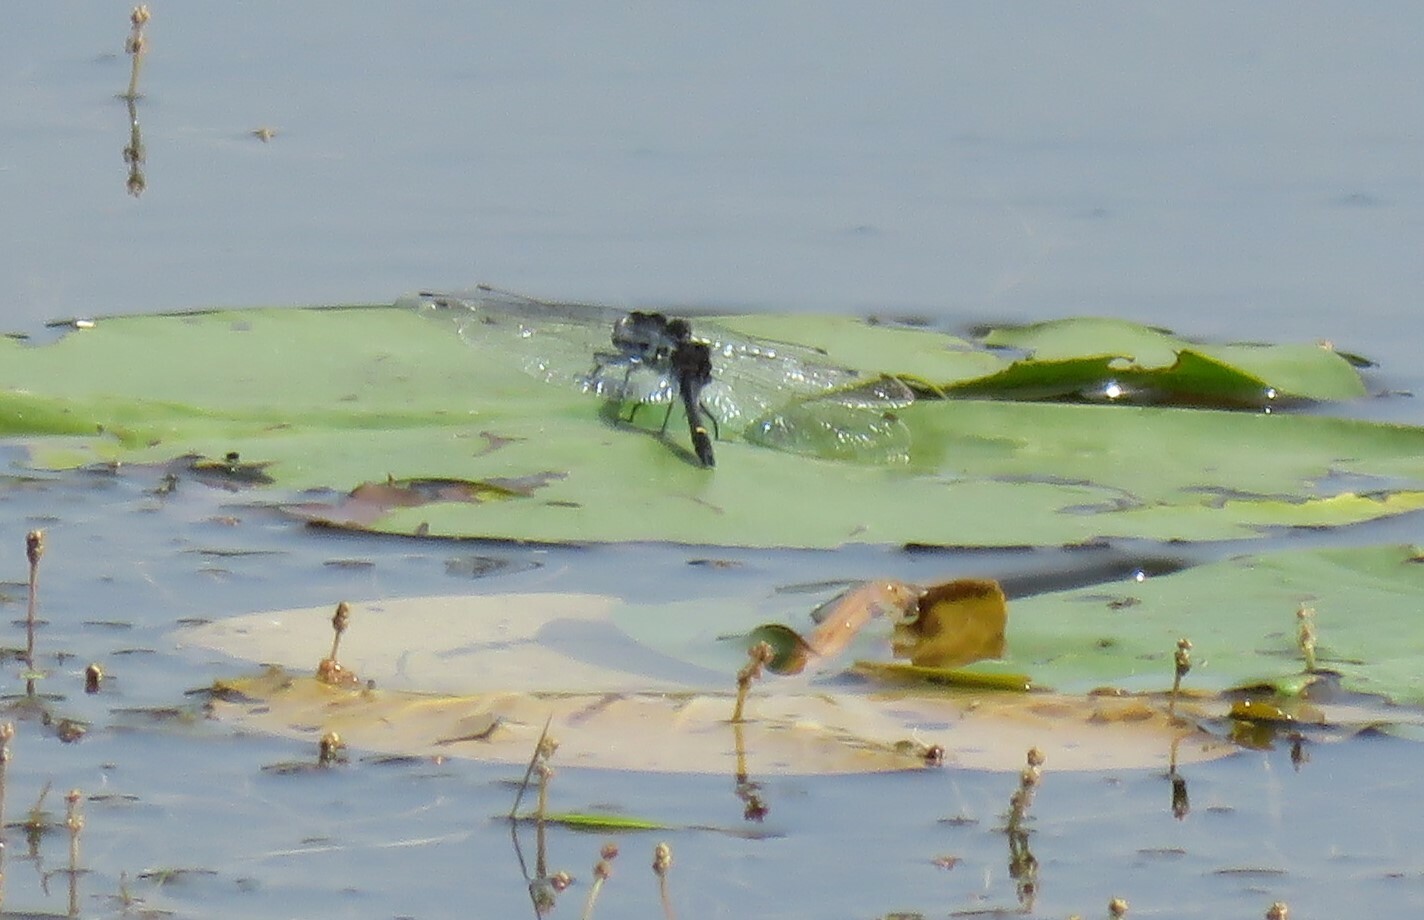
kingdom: Animalia
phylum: Arthropoda
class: Insecta
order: Odonata
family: Libellulidae
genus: Leucorrhinia
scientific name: Leucorrhinia intacta
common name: Dot-tailed whiteface
